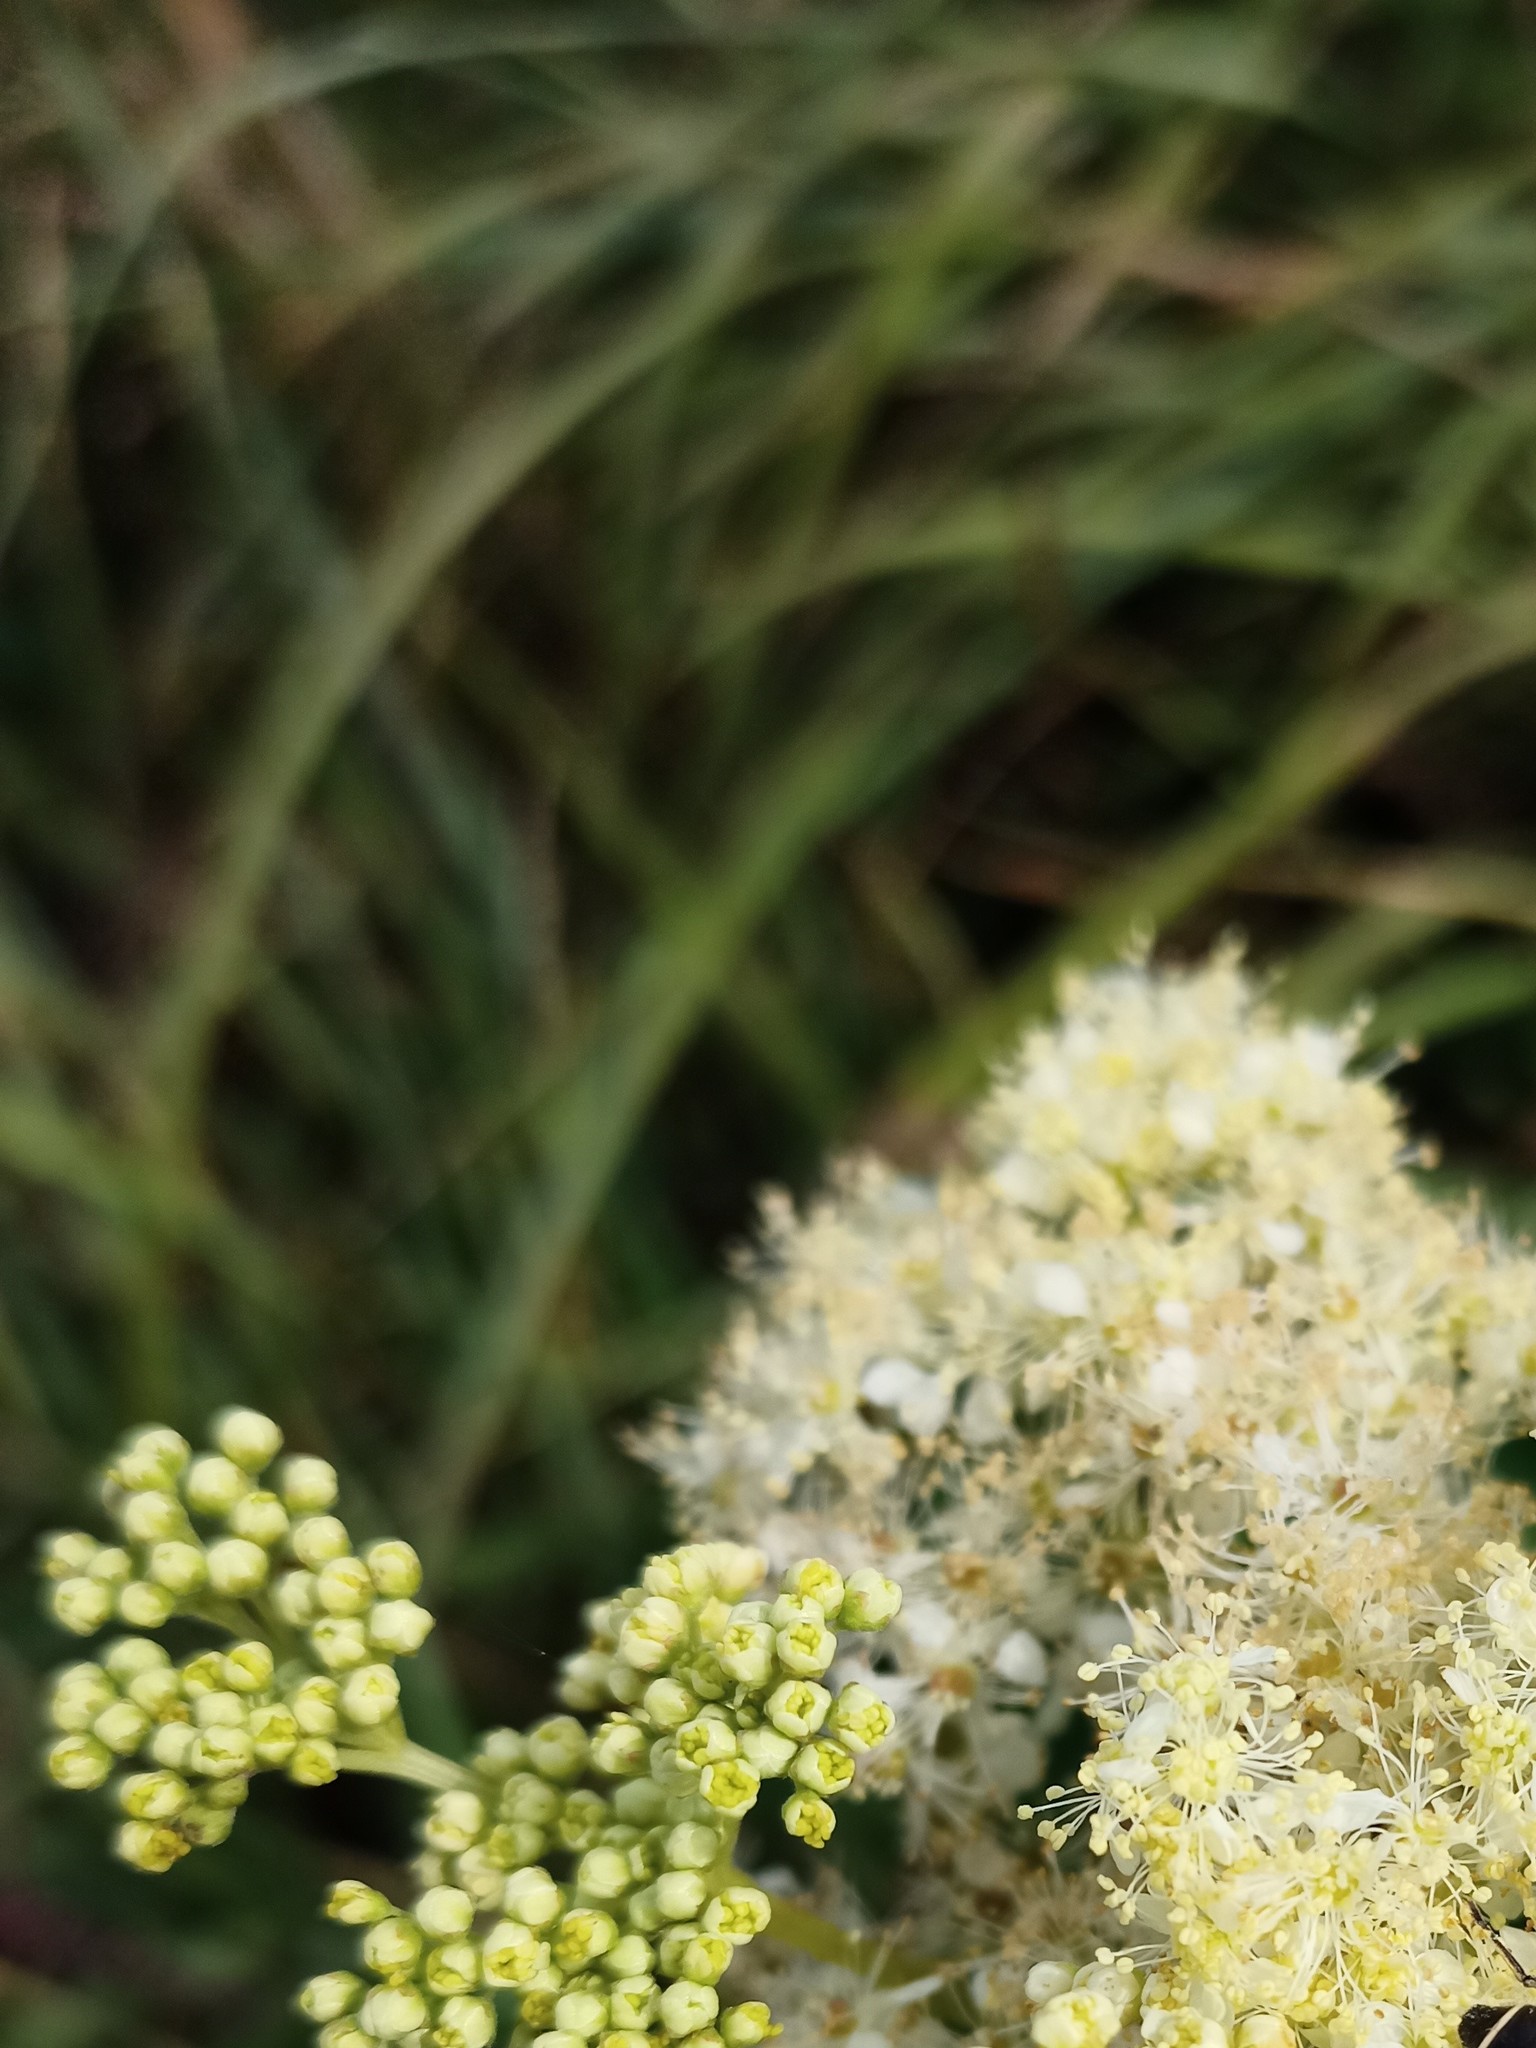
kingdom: Plantae
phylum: Tracheophyta
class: Magnoliopsida
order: Rosales
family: Rosaceae
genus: Filipendula
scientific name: Filipendula ulmaria
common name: Meadowsweet
